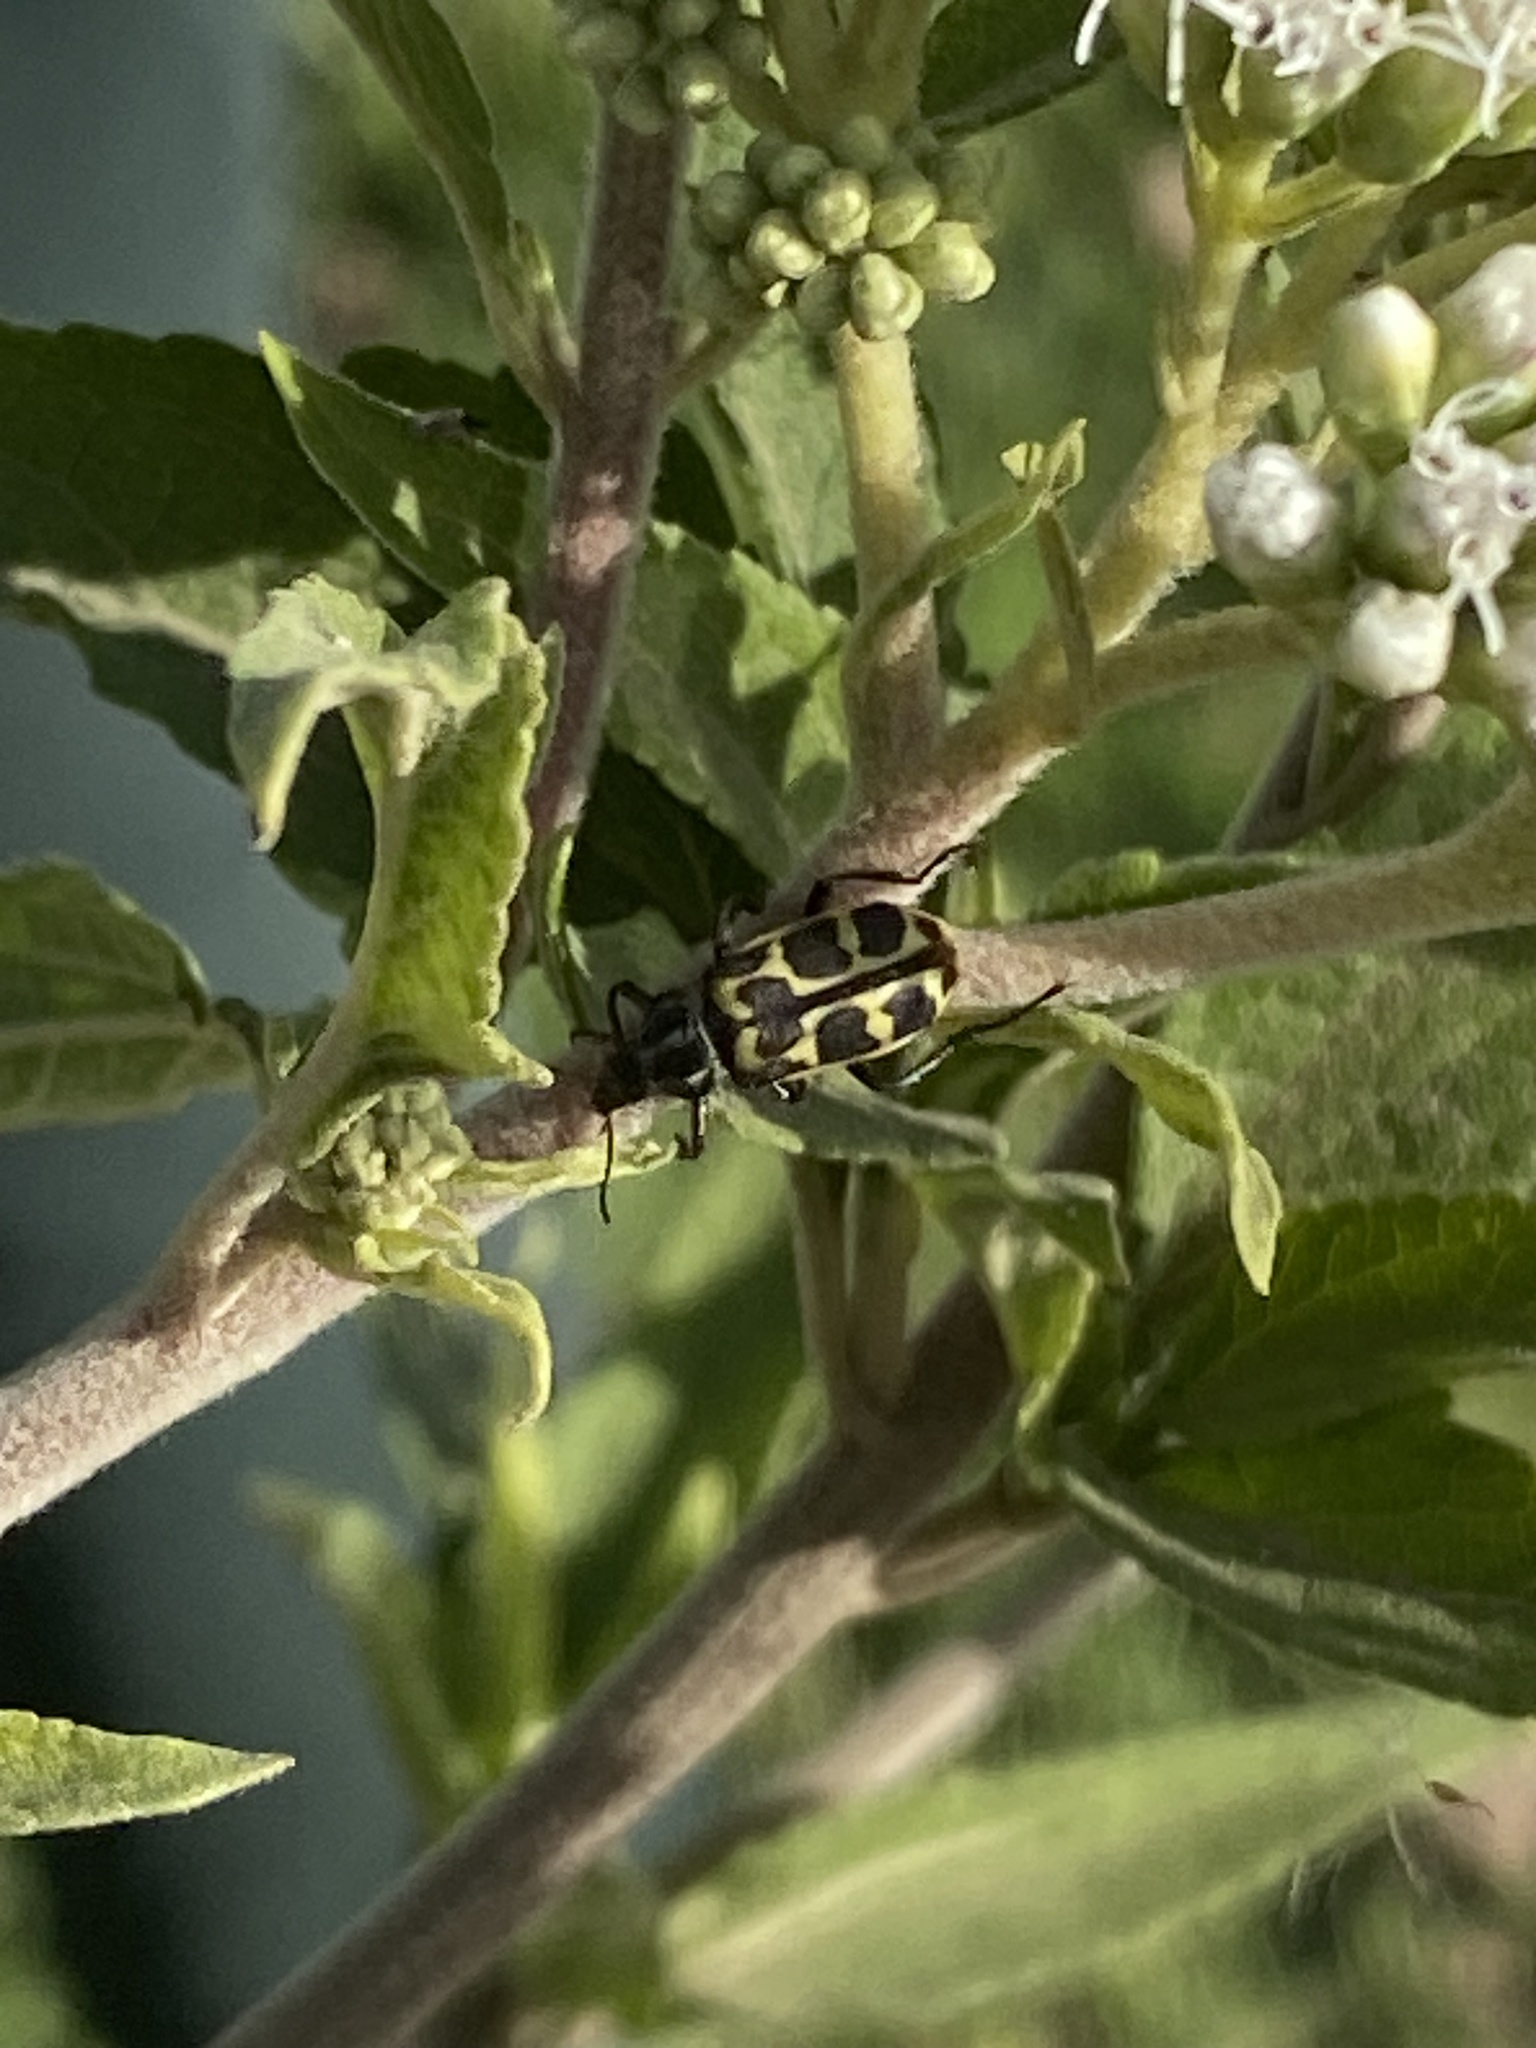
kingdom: Animalia
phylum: Arthropoda
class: Insecta
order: Coleoptera
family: Melyridae
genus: Astylus
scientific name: Astylus atromaculatus
